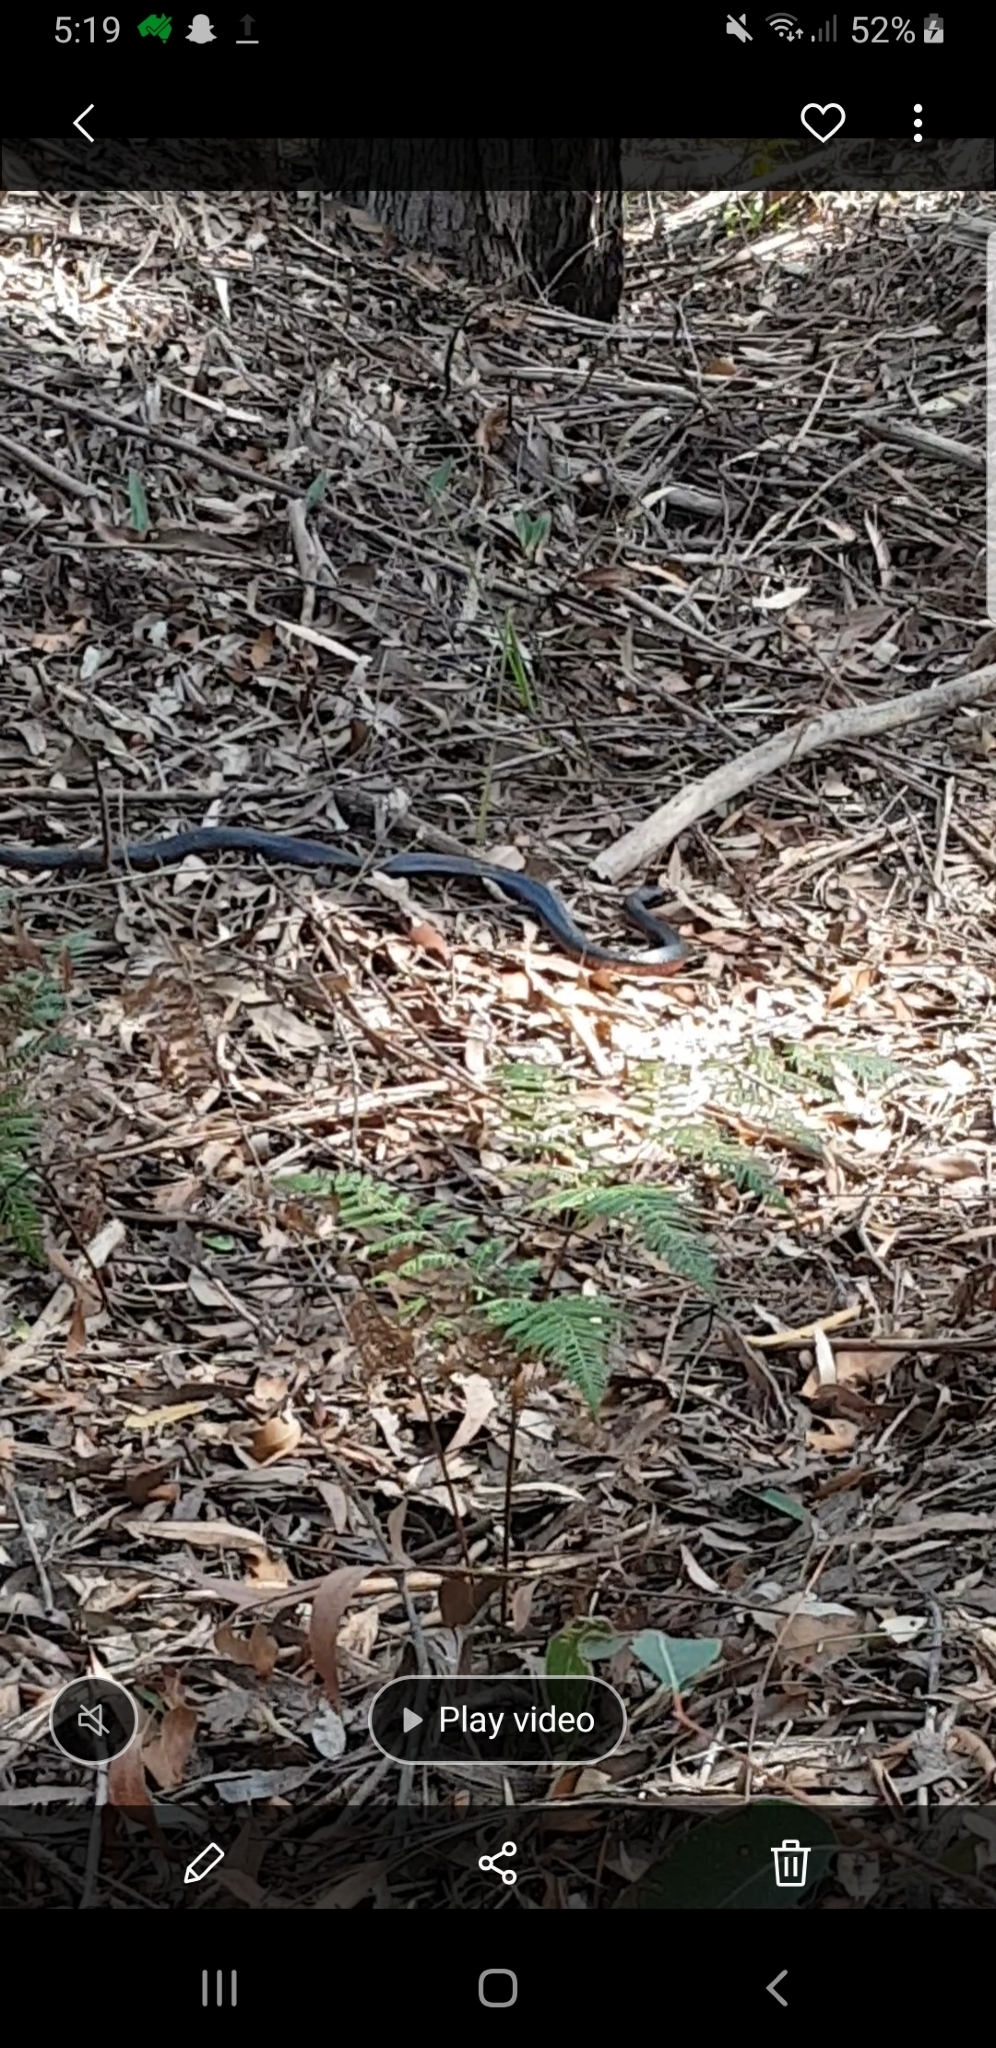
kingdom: Animalia
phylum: Chordata
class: Squamata
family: Elapidae
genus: Pseudechis
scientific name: Pseudechis porphyriacus
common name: Australian black snake
